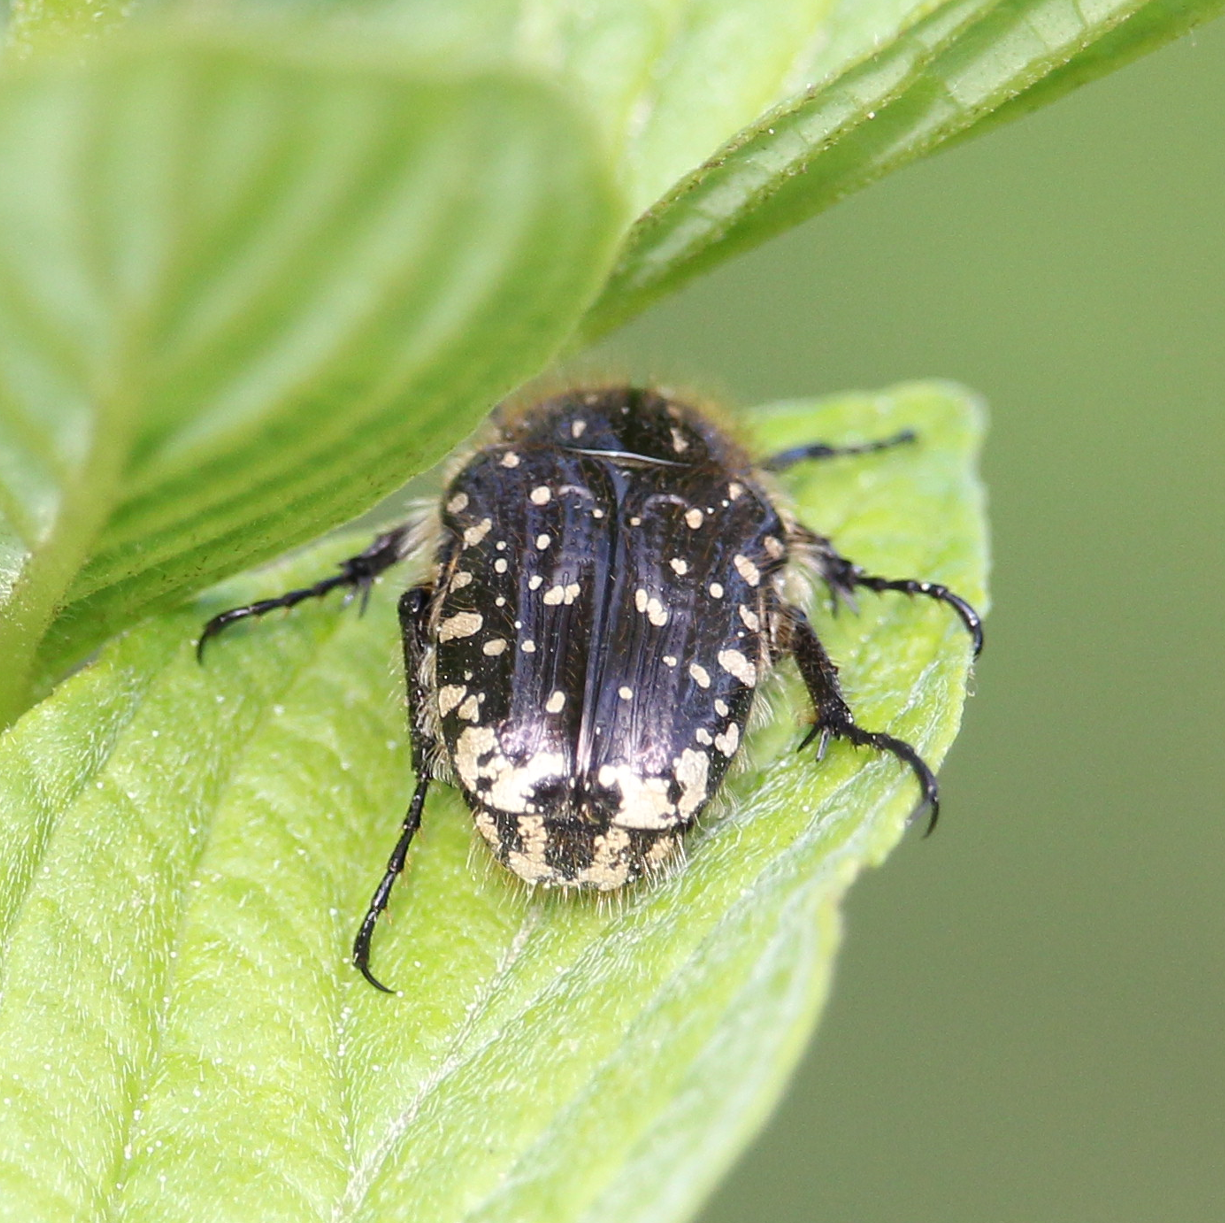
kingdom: Animalia
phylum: Arthropoda
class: Insecta
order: Coleoptera
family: Scarabaeidae
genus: Oxythyrea
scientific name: Oxythyrea funesta
